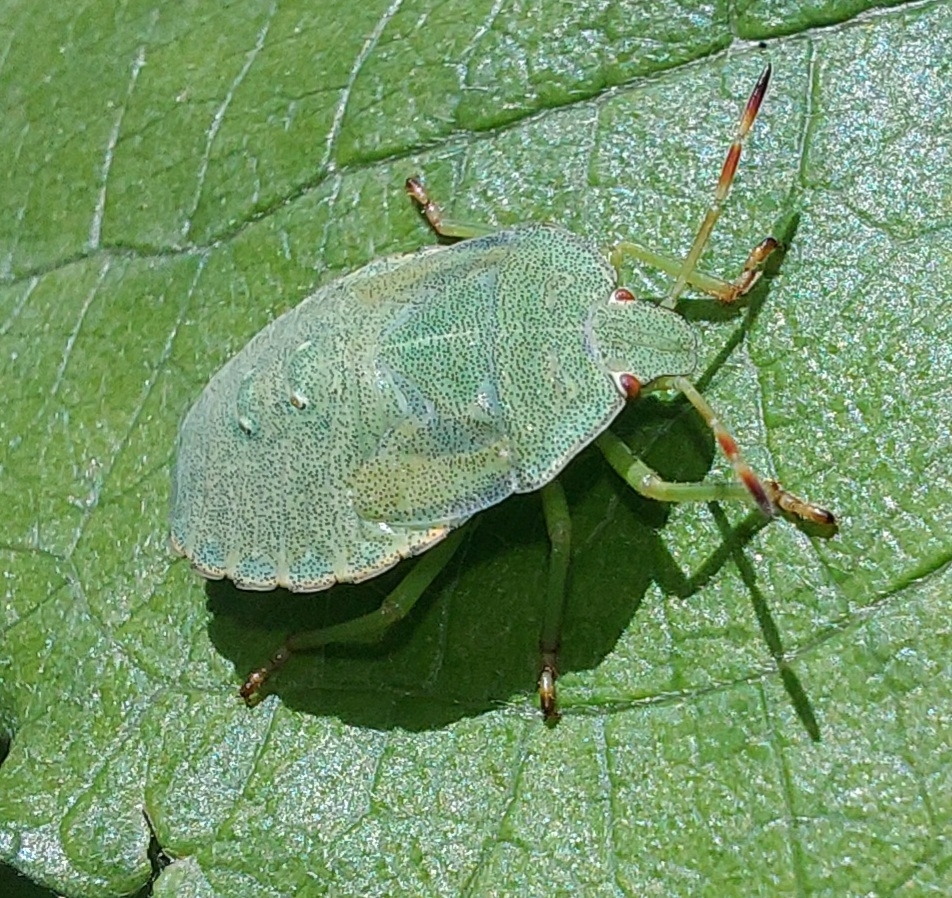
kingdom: Animalia
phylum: Arthropoda
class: Insecta
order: Hemiptera
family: Pentatomidae
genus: Palomena
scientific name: Palomena prasina
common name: Green shieldbug
